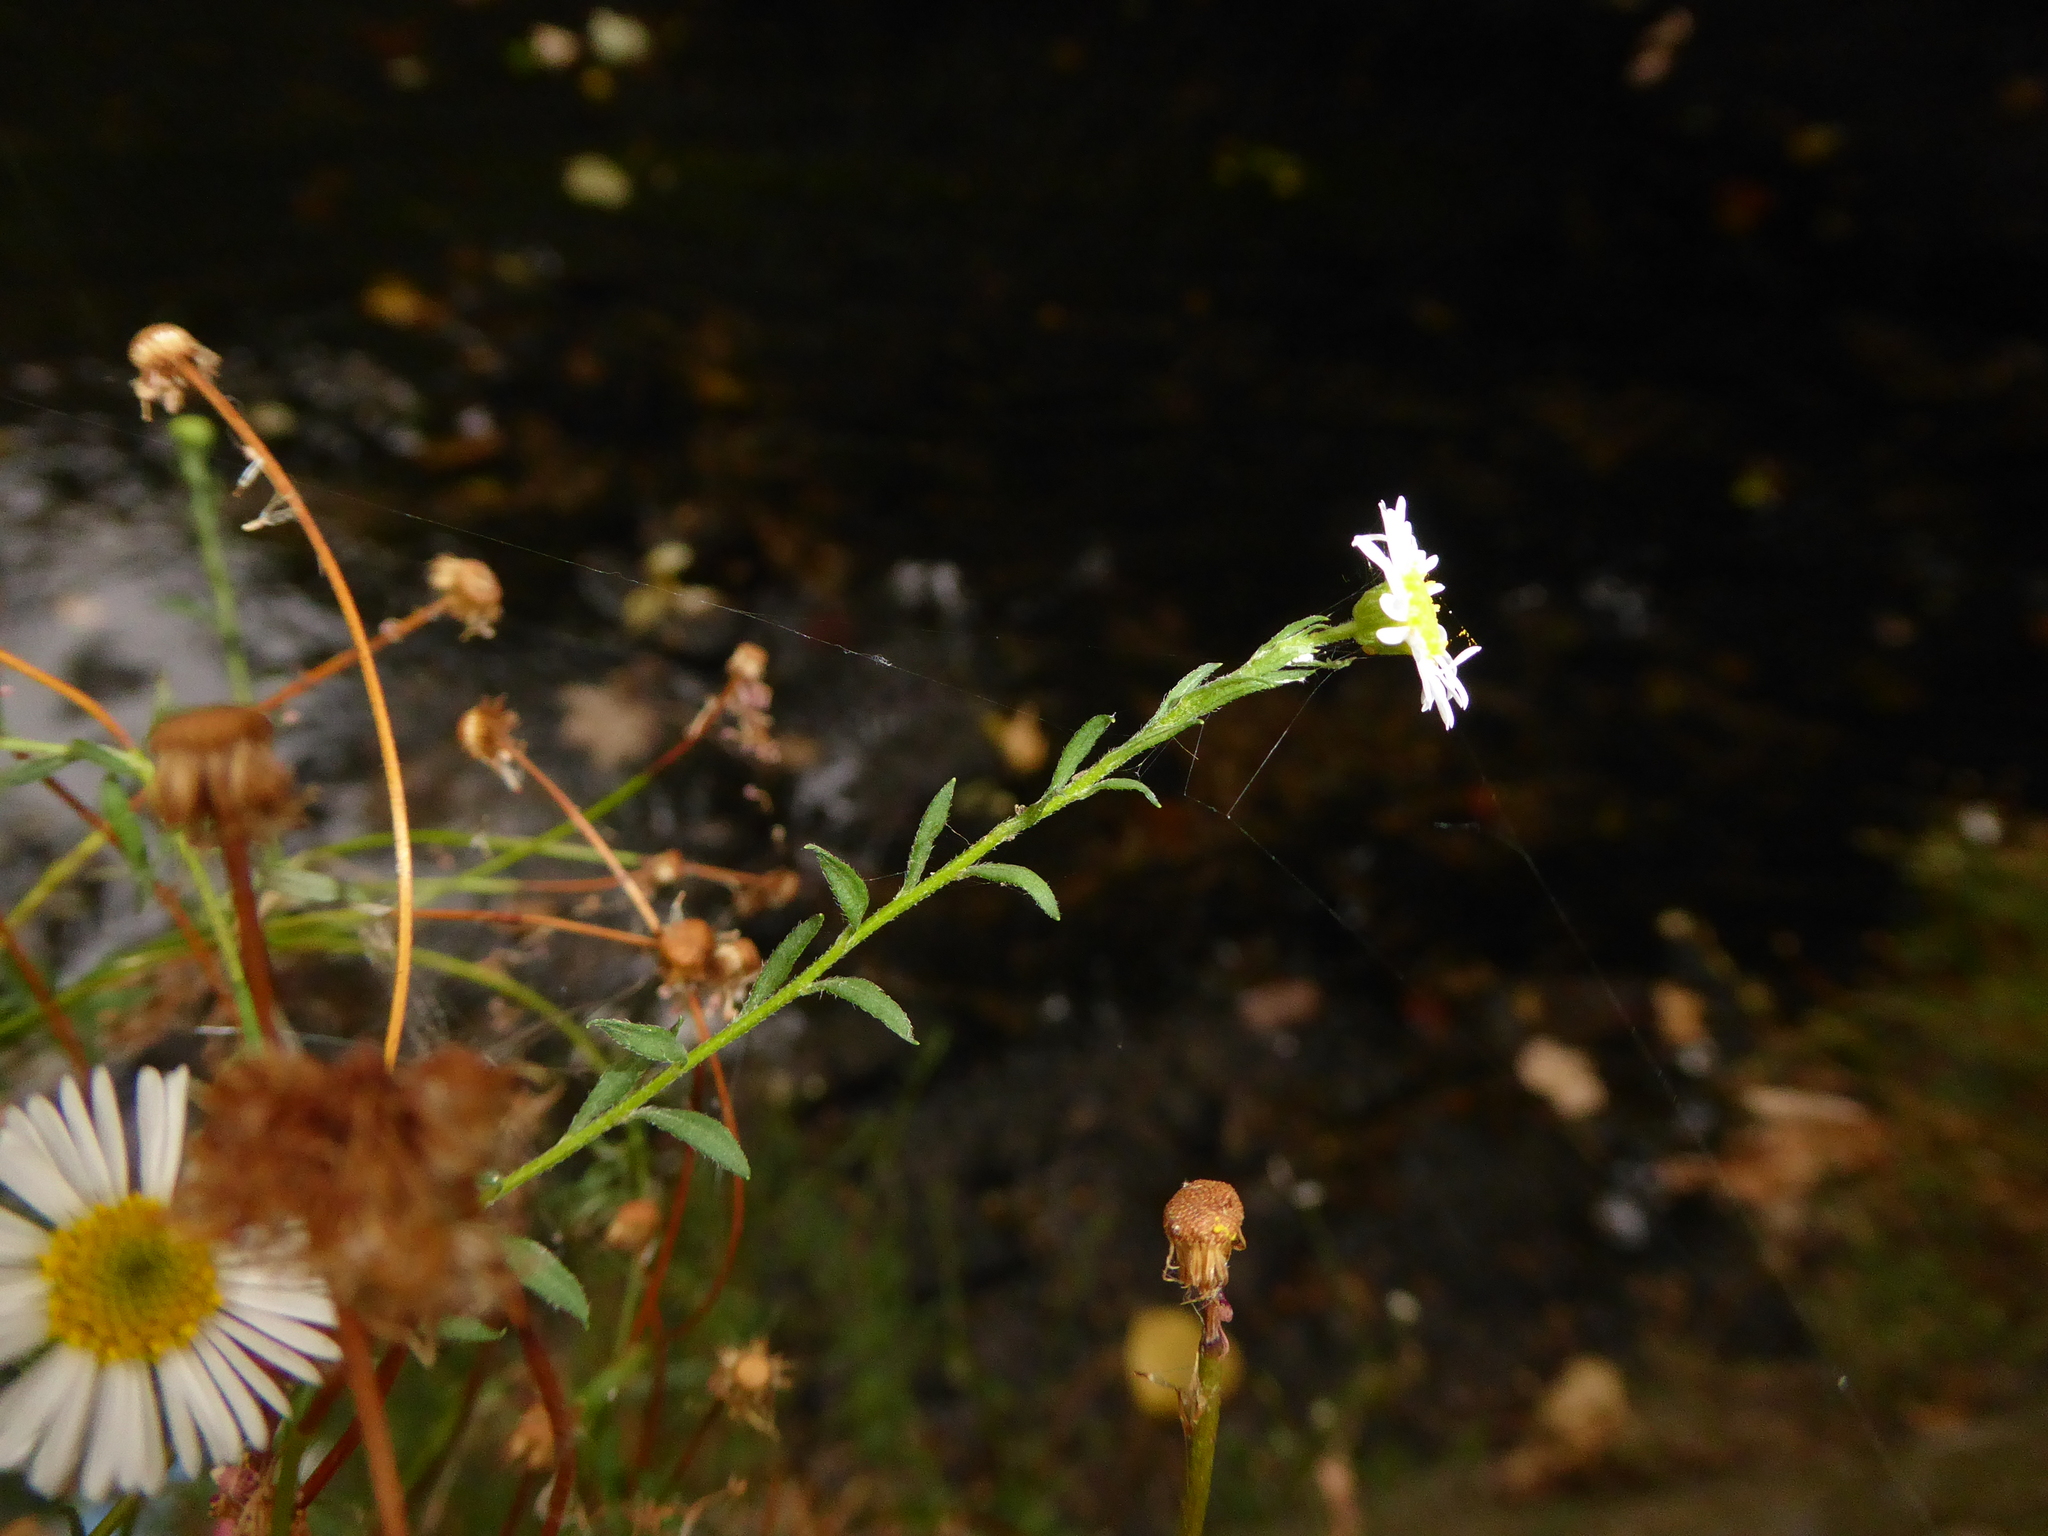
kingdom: Plantae
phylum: Tracheophyta
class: Magnoliopsida
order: Asterales
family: Asteraceae
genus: Erigeron
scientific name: Erigeron karvinskianus
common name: Mexican fleabane
